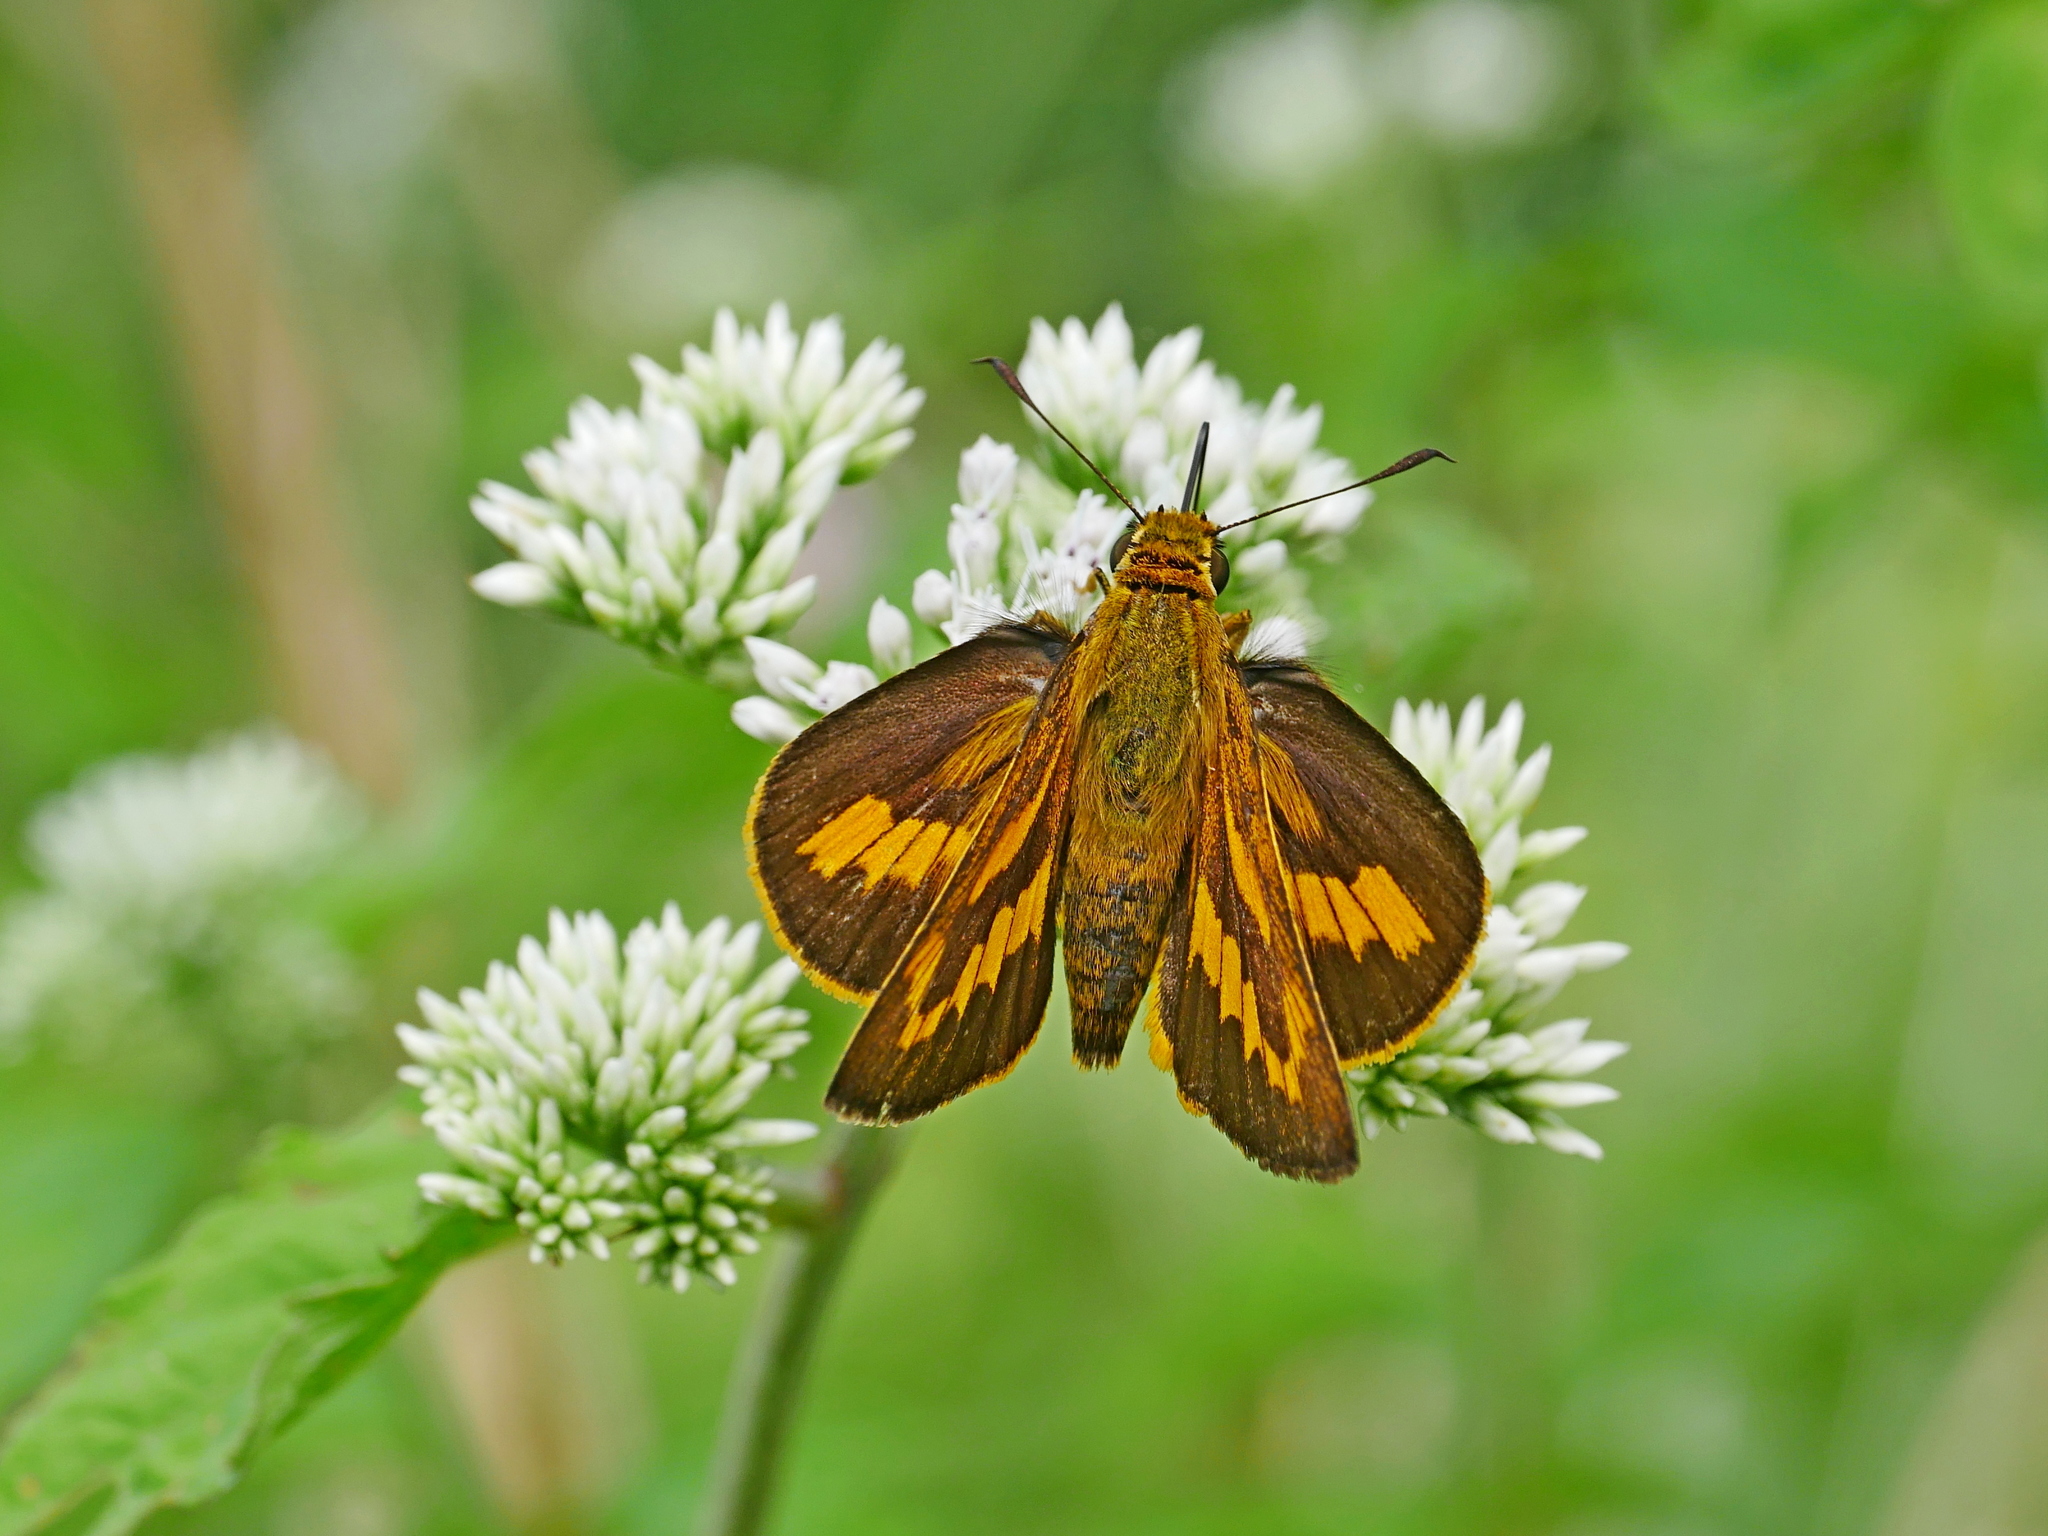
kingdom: Animalia
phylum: Arthropoda
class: Insecta
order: Lepidoptera
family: Hesperiidae
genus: Telicota
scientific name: Telicota ohara
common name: Dark palm dart
